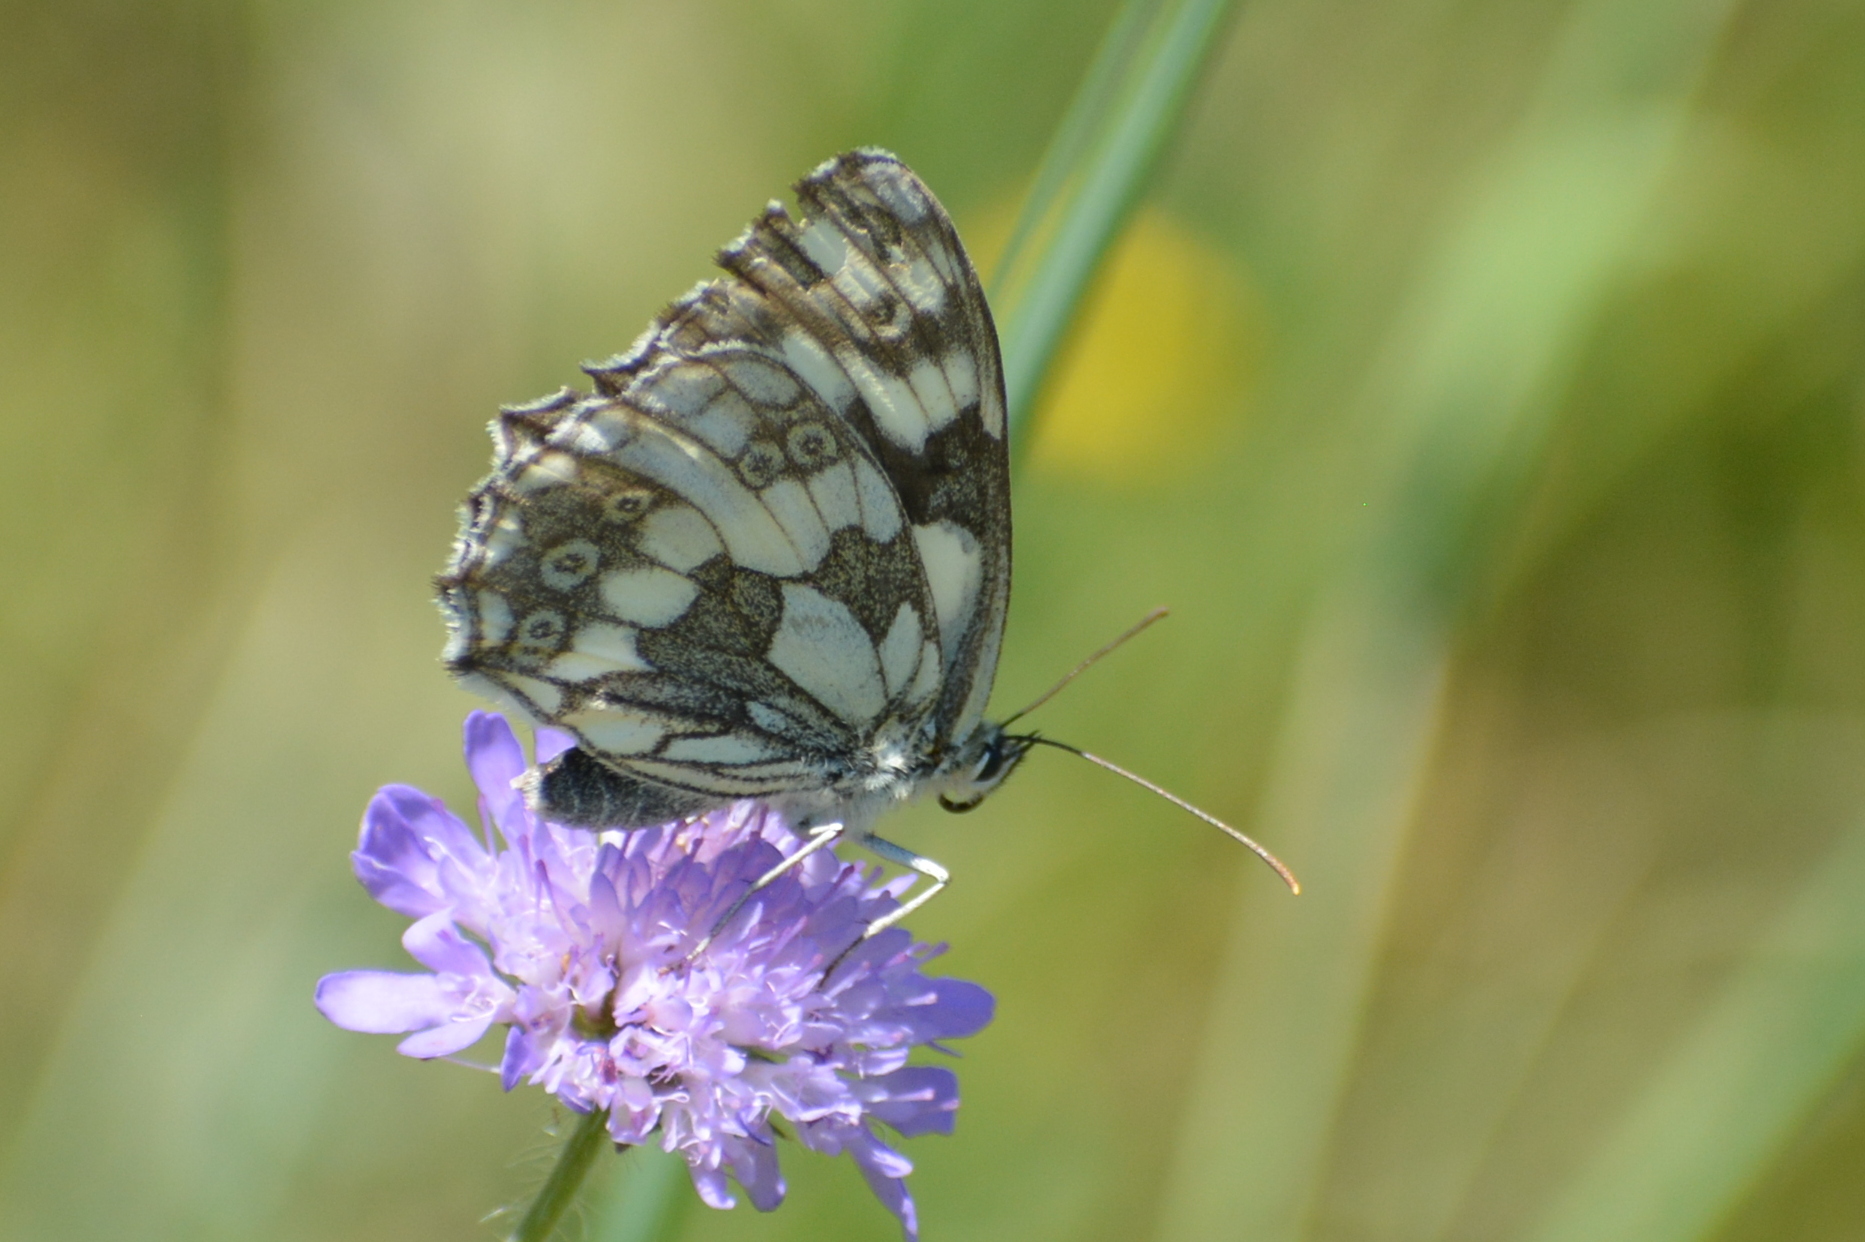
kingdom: Animalia
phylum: Arthropoda
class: Insecta
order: Lepidoptera
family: Nymphalidae
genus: Melanargia
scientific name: Melanargia galathea
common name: Marbled white
